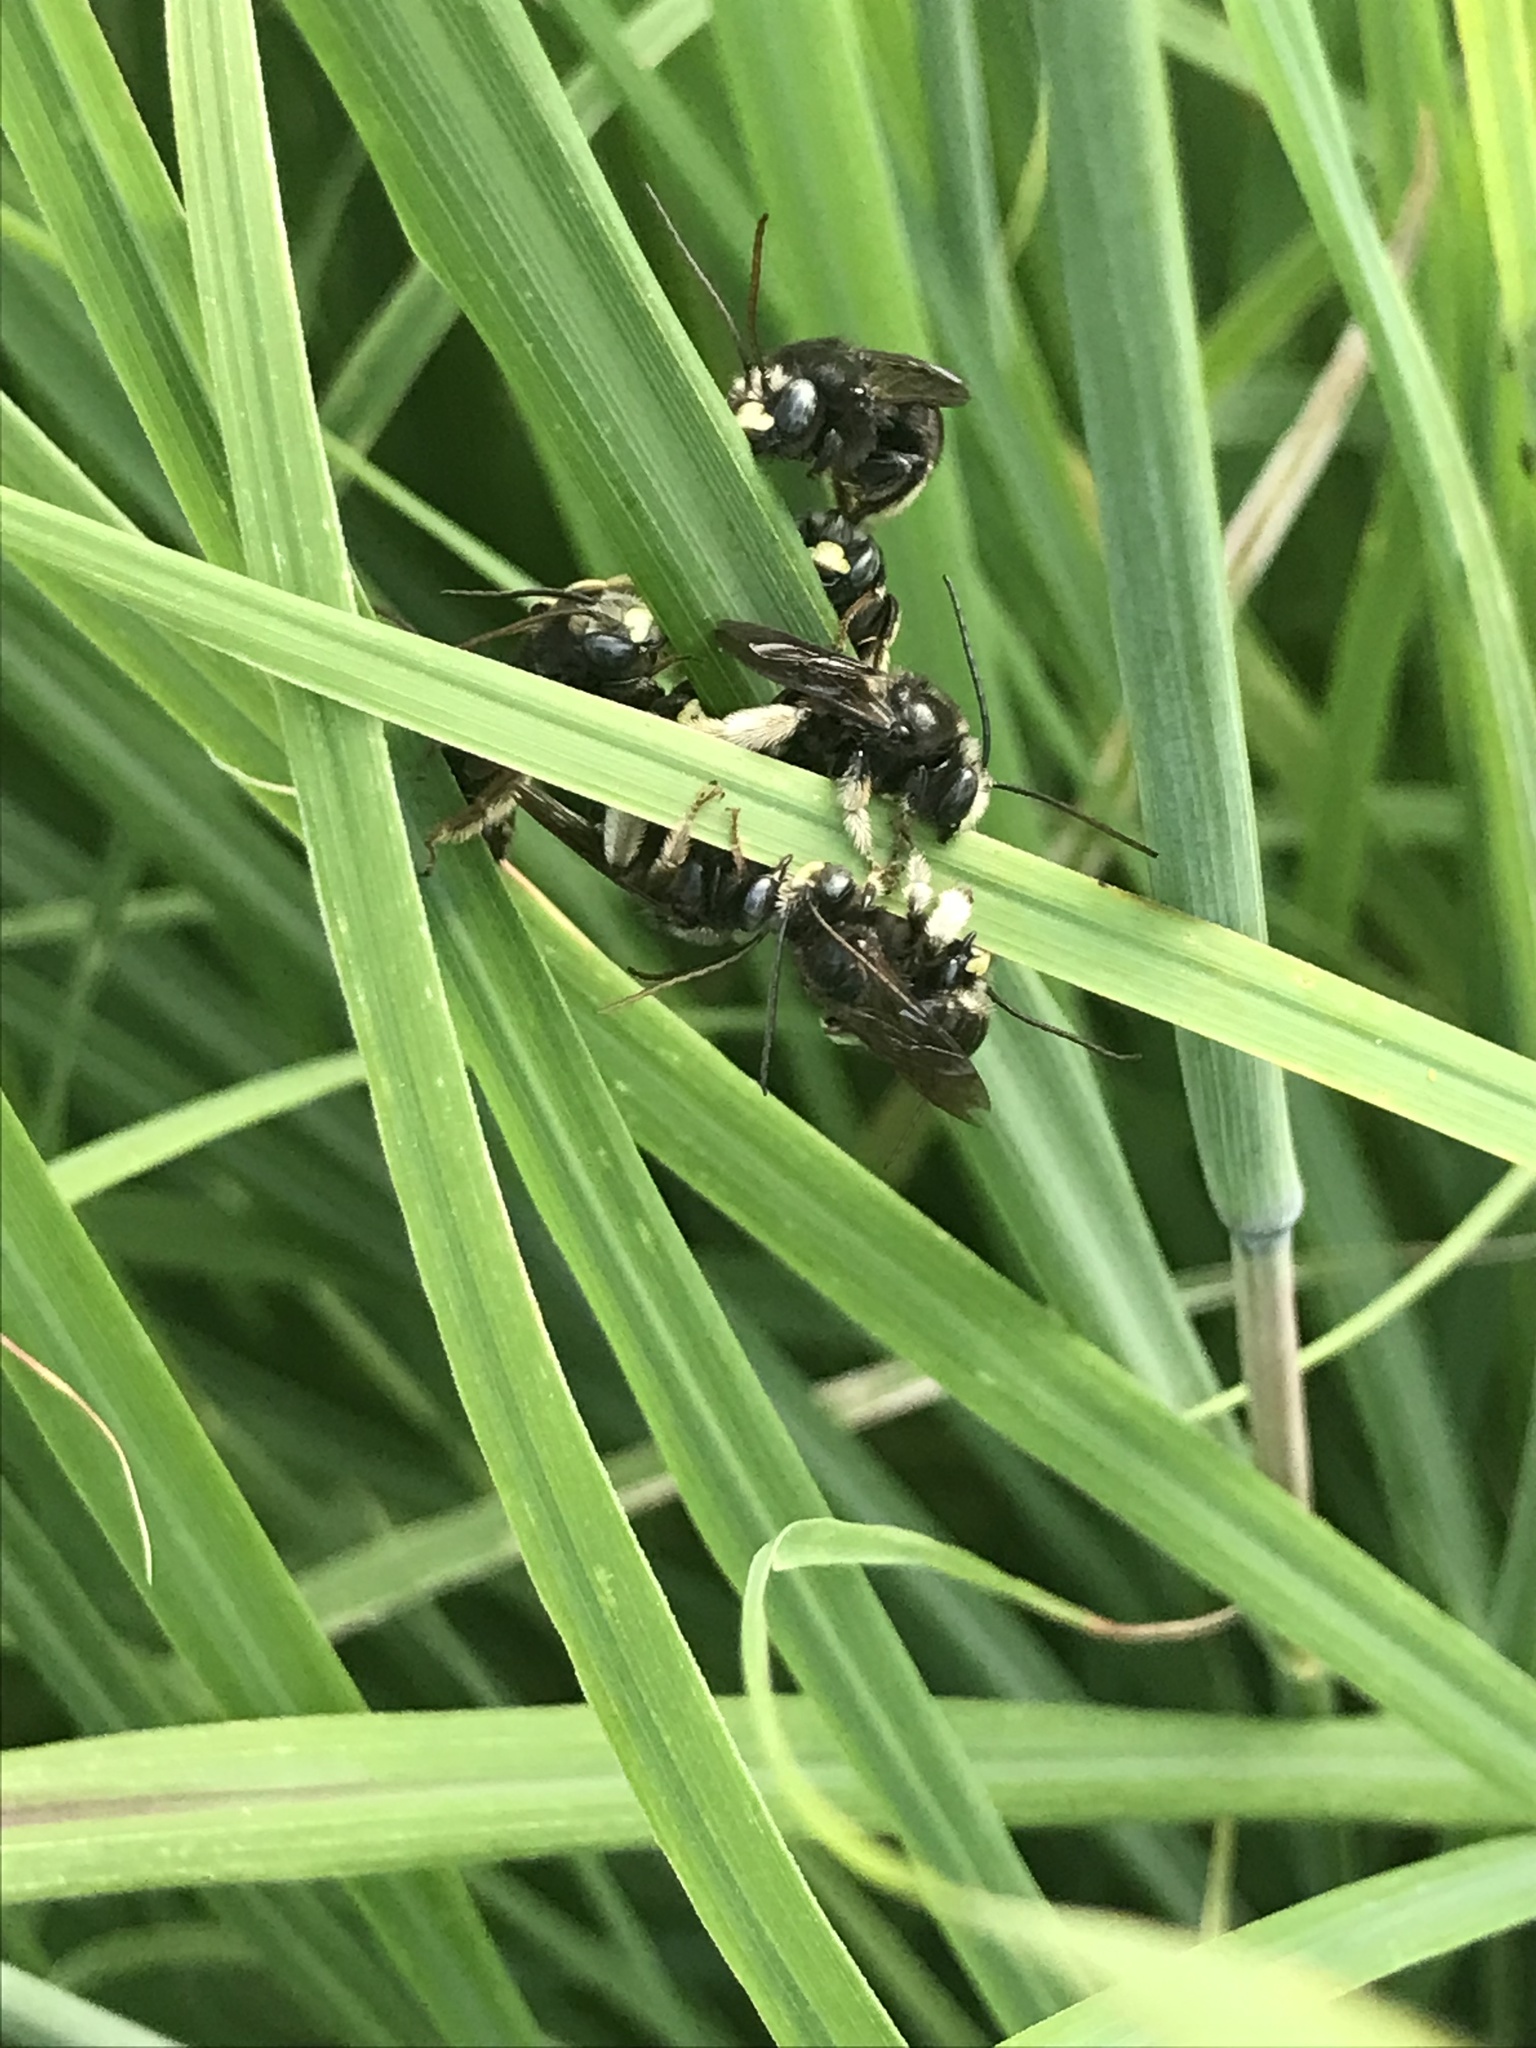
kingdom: Animalia
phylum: Arthropoda
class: Insecta
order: Hymenoptera
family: Apidae
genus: Melissodes
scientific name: Melissodes bimaculatus
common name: Two-spotted long-horned bee
